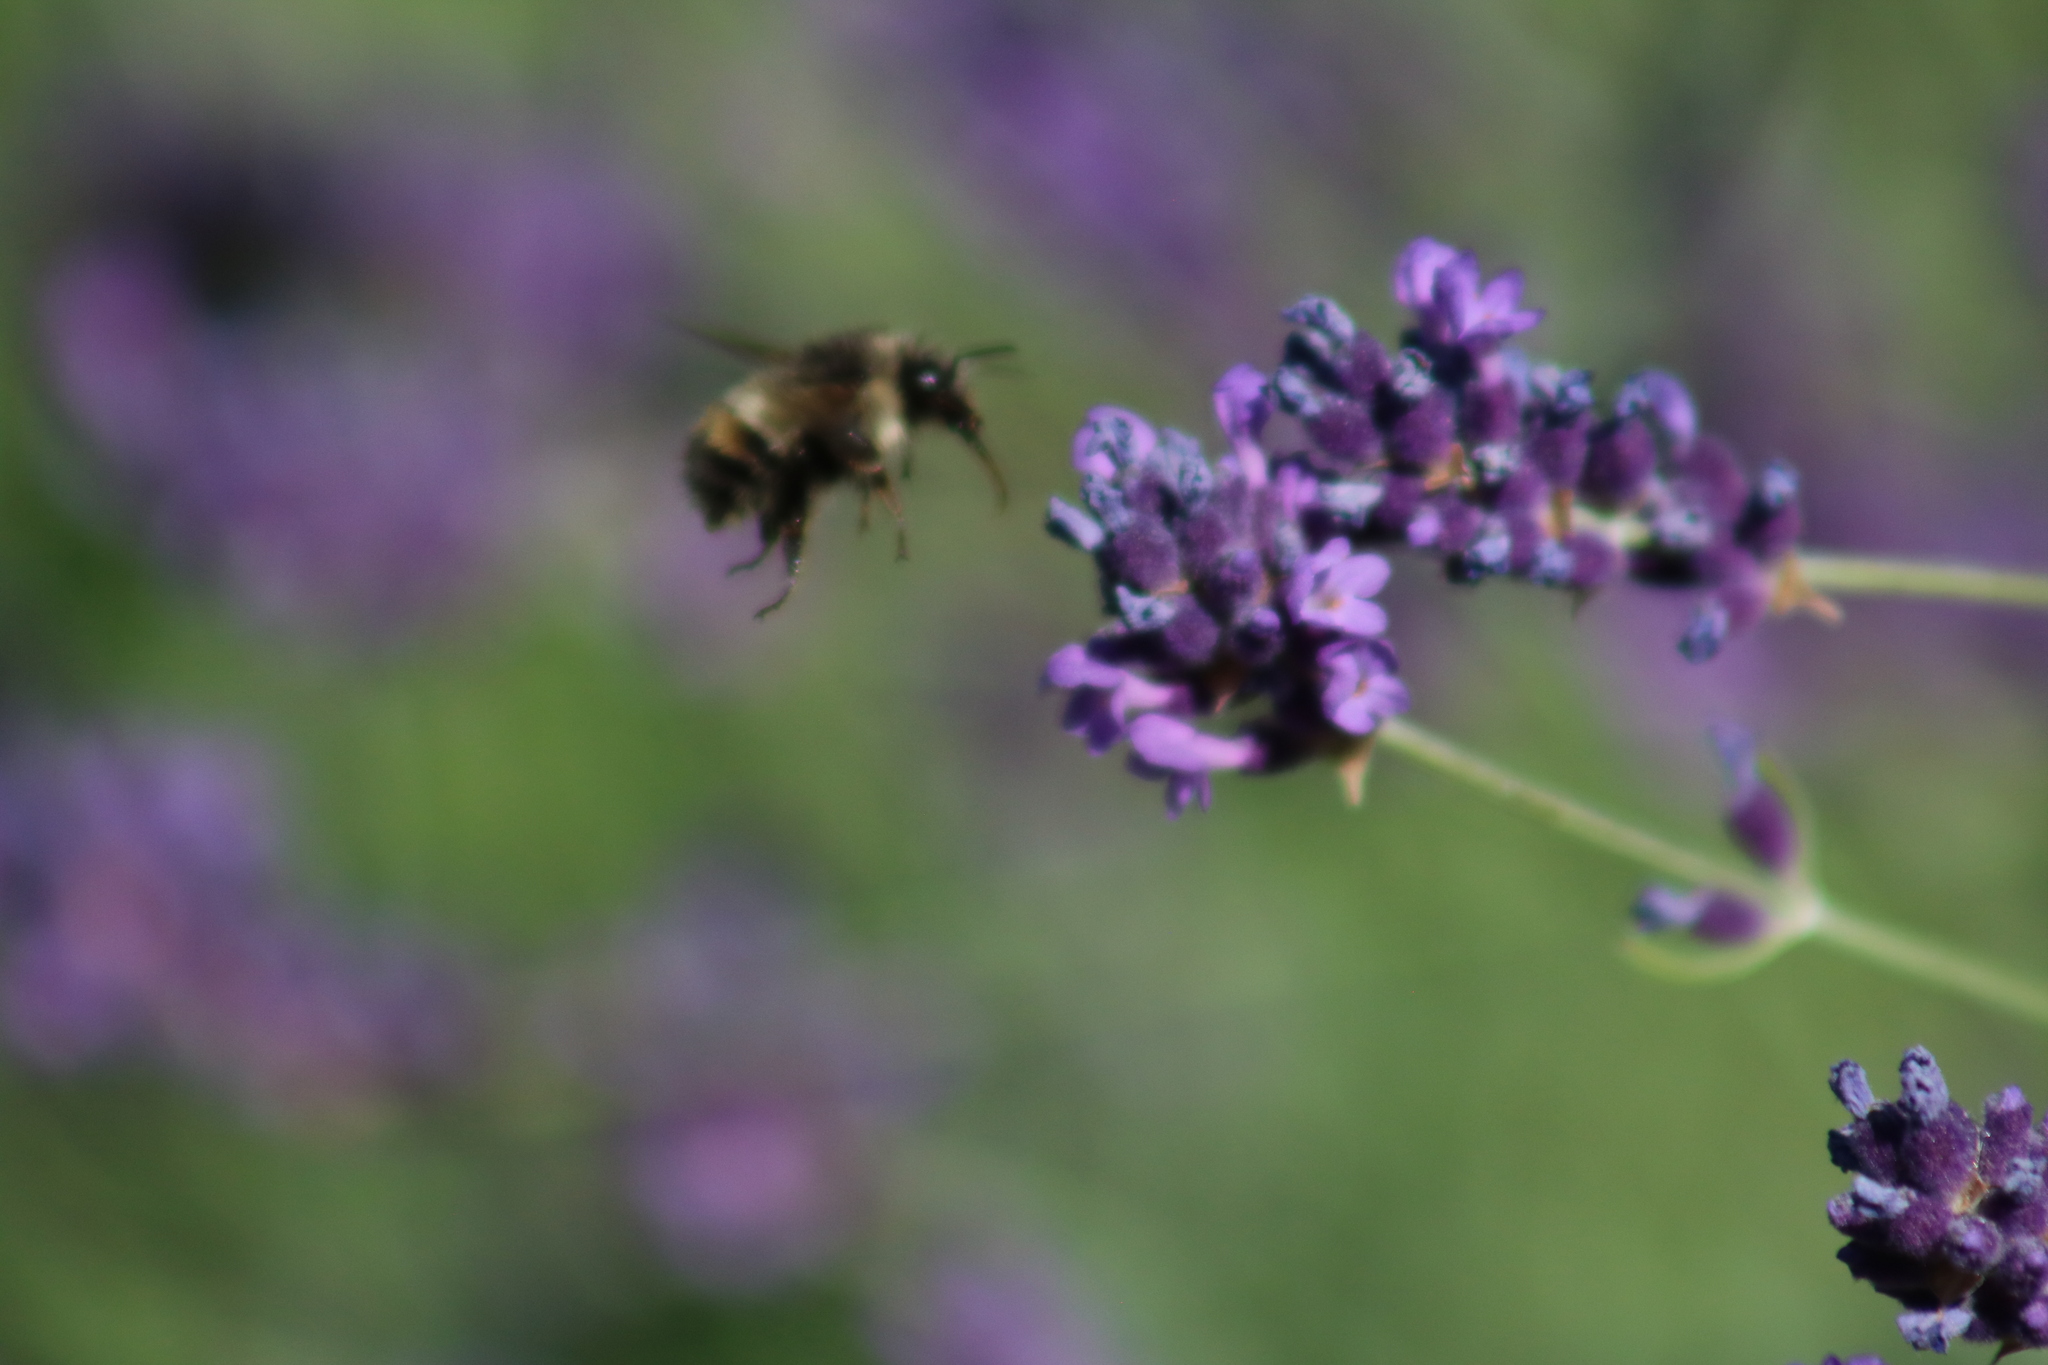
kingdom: Animalia
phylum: Arthropoda
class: Insecta
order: Hymenoptera
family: Apidae
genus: Bombus
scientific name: Bombus flavifrons
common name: Yellow head bumble bee
